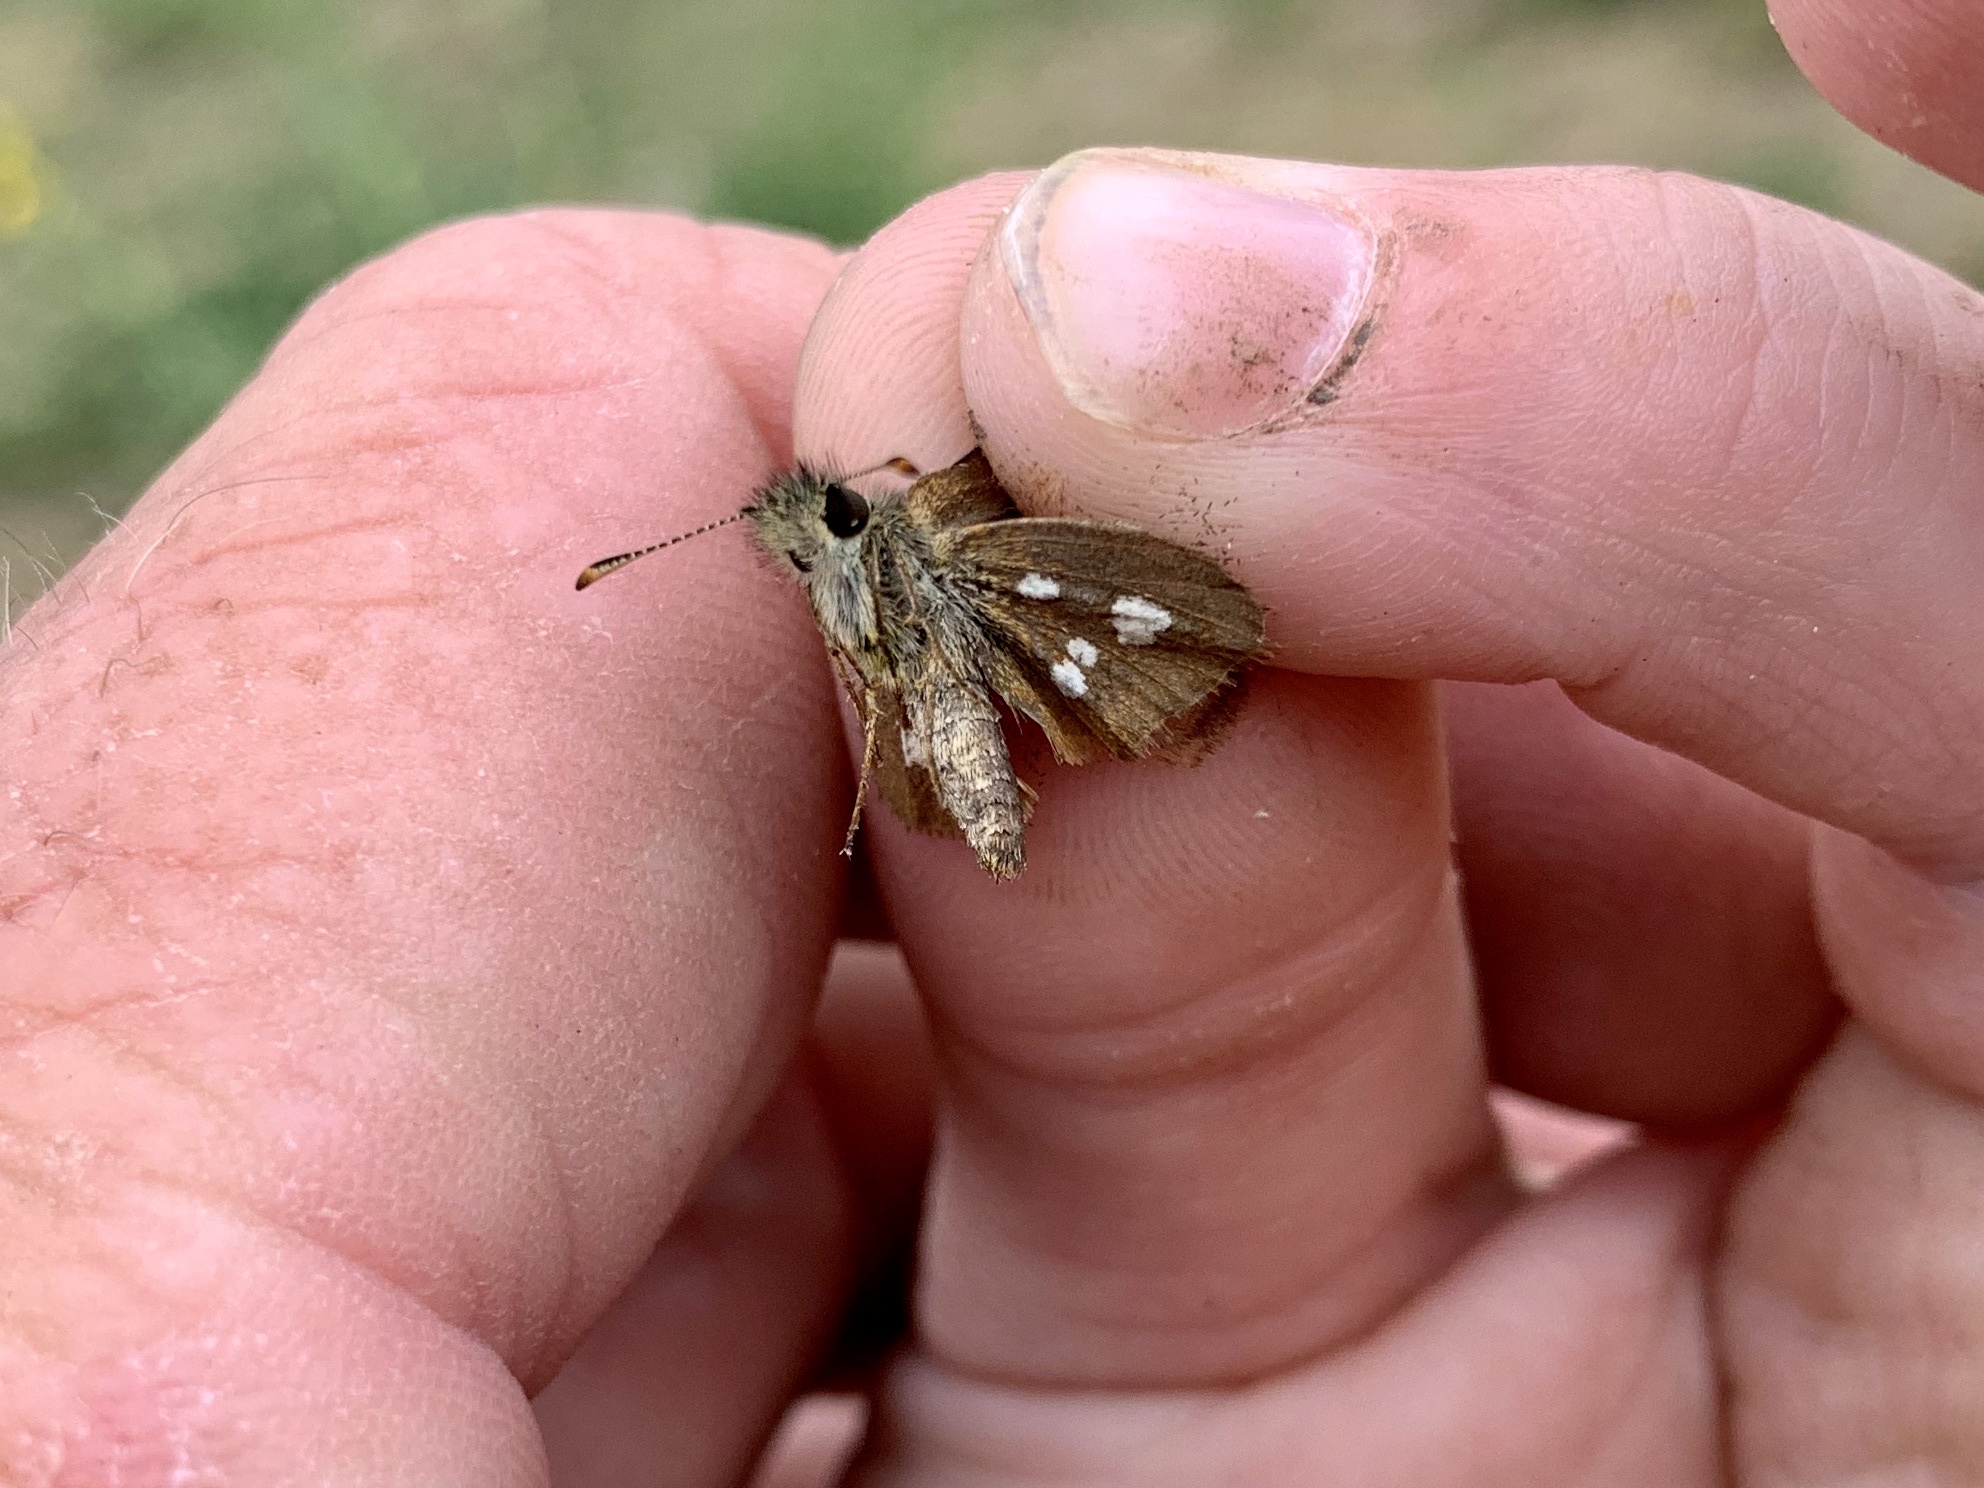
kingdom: Animalia
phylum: Arthropoda
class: Insecta
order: Lepidoptera
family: Hesperiidae
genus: Piruna
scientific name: Piruna polingii
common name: Four-spotted skipperling
